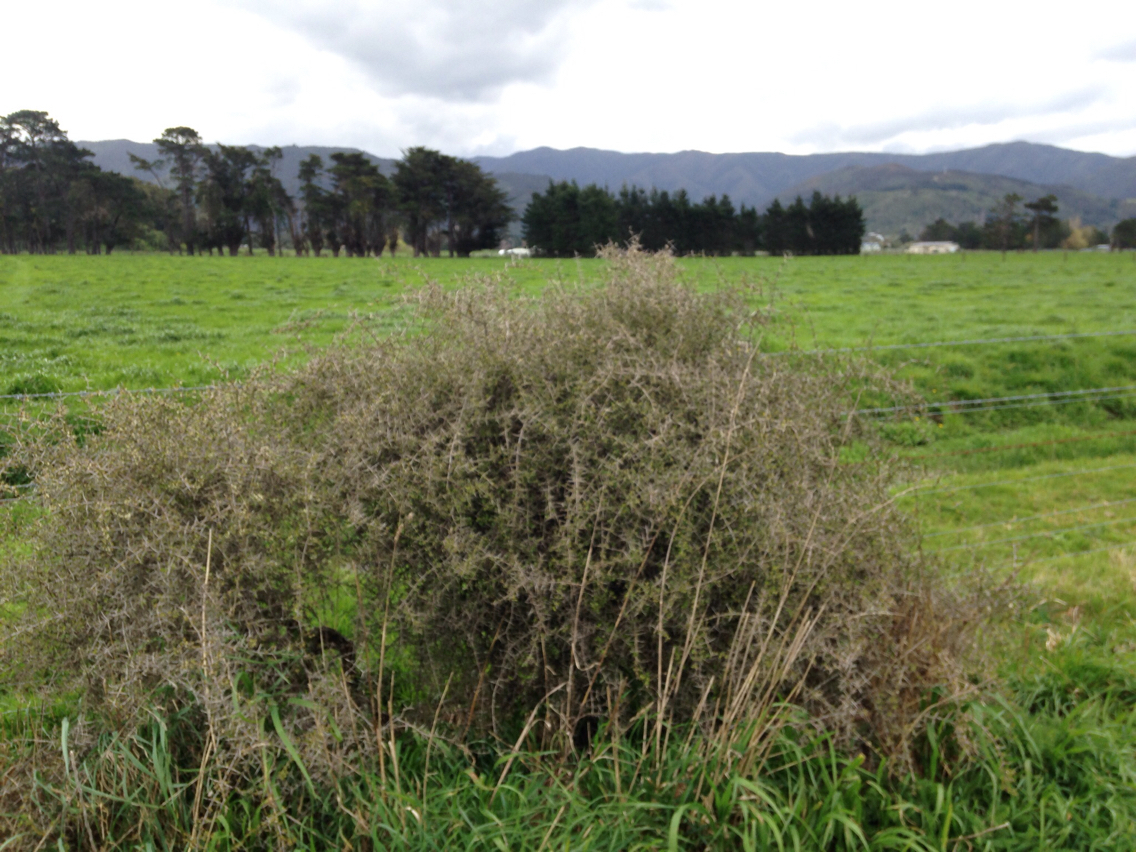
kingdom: Plantae
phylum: Tracheophyta
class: Magnoliopsida
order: Rosales
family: Rhamnaceae
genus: Discaria
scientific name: Discaria toumatou
